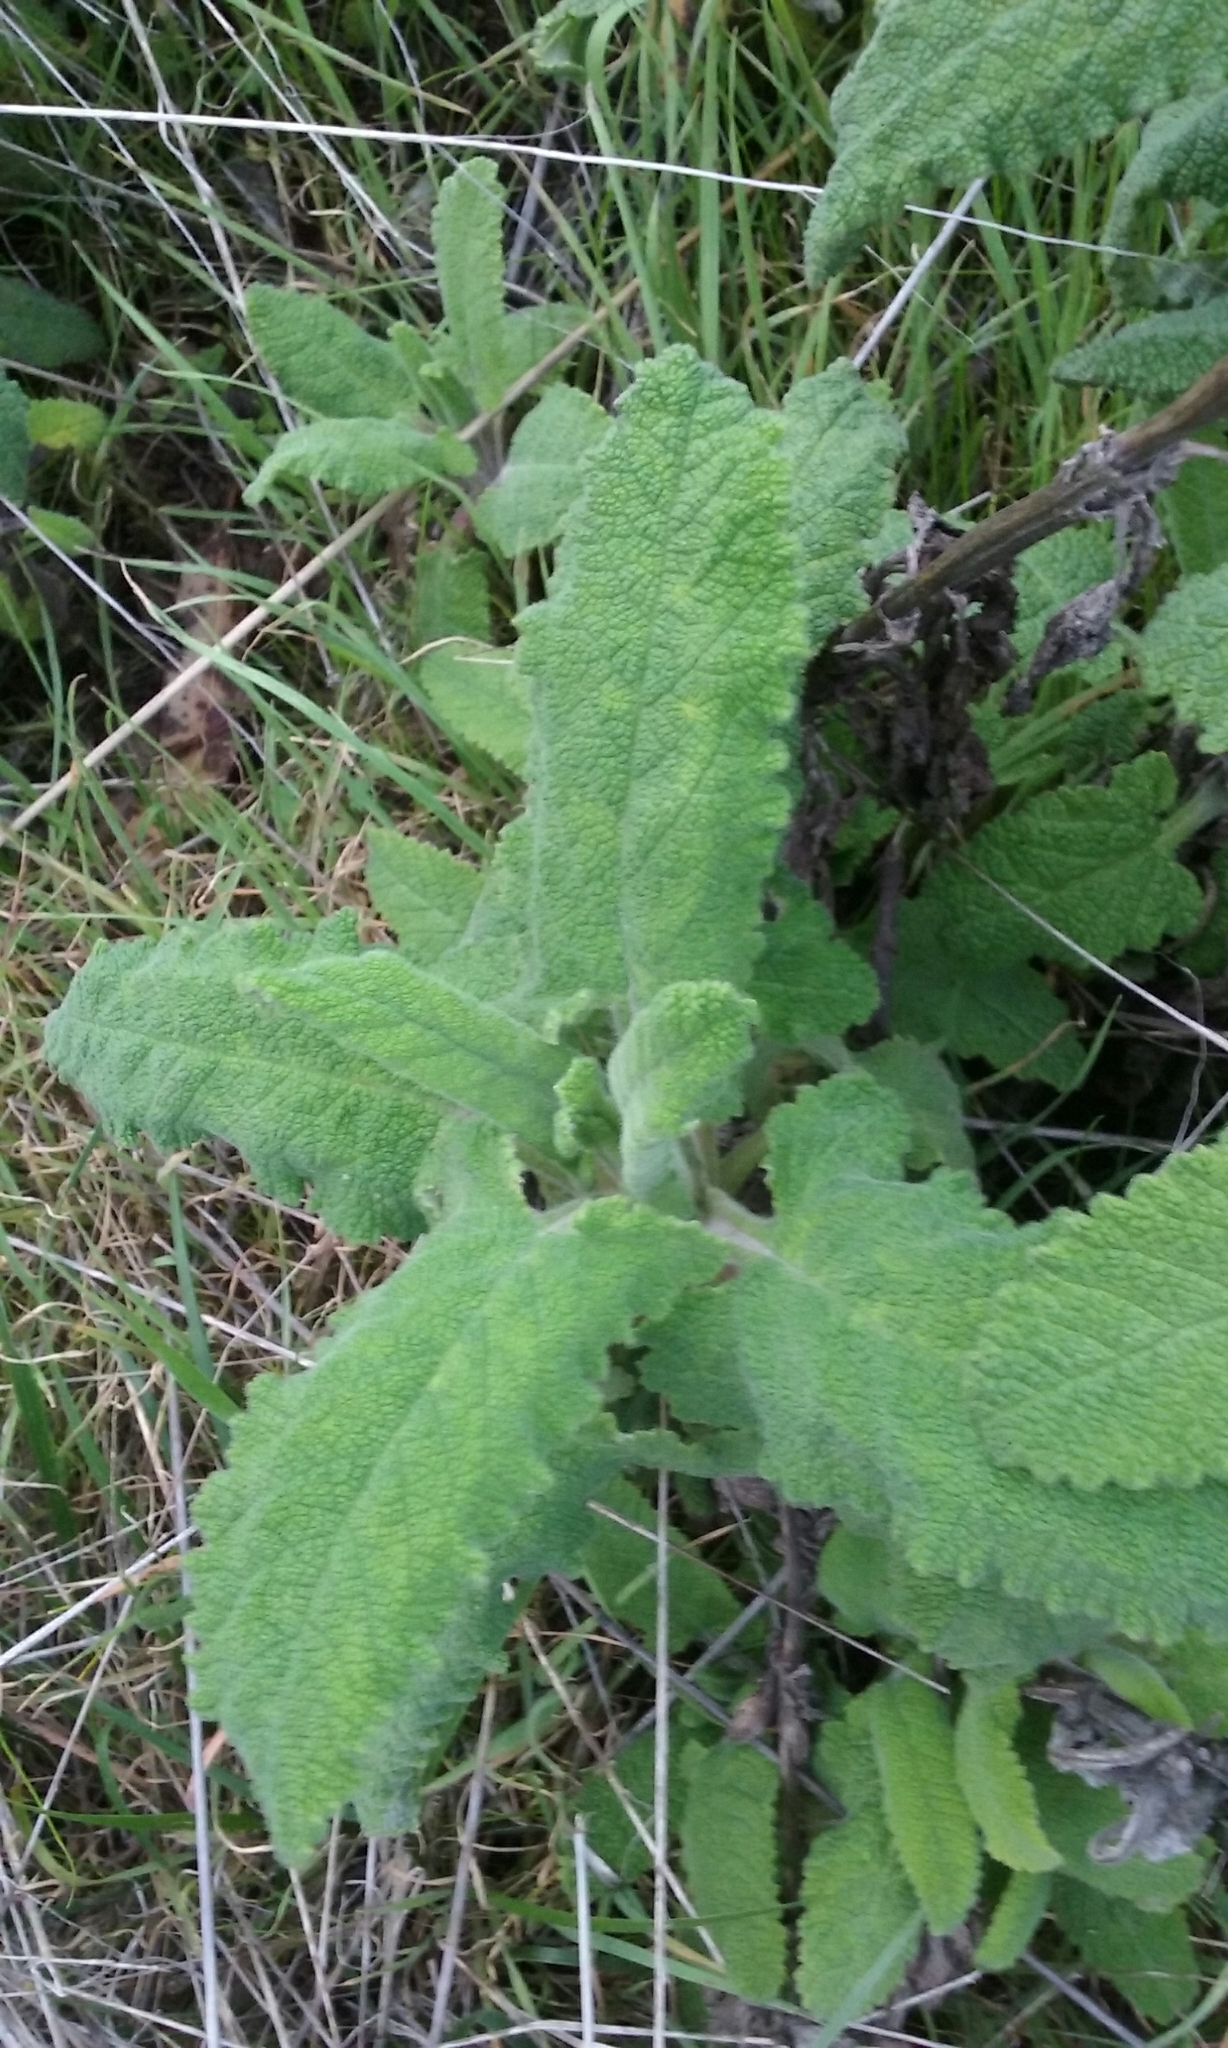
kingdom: Plantae
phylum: Tracheophyta
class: Magnoliopsida
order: Lamiales
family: Lamiaceae
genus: Salvia
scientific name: Salvia spathacea
